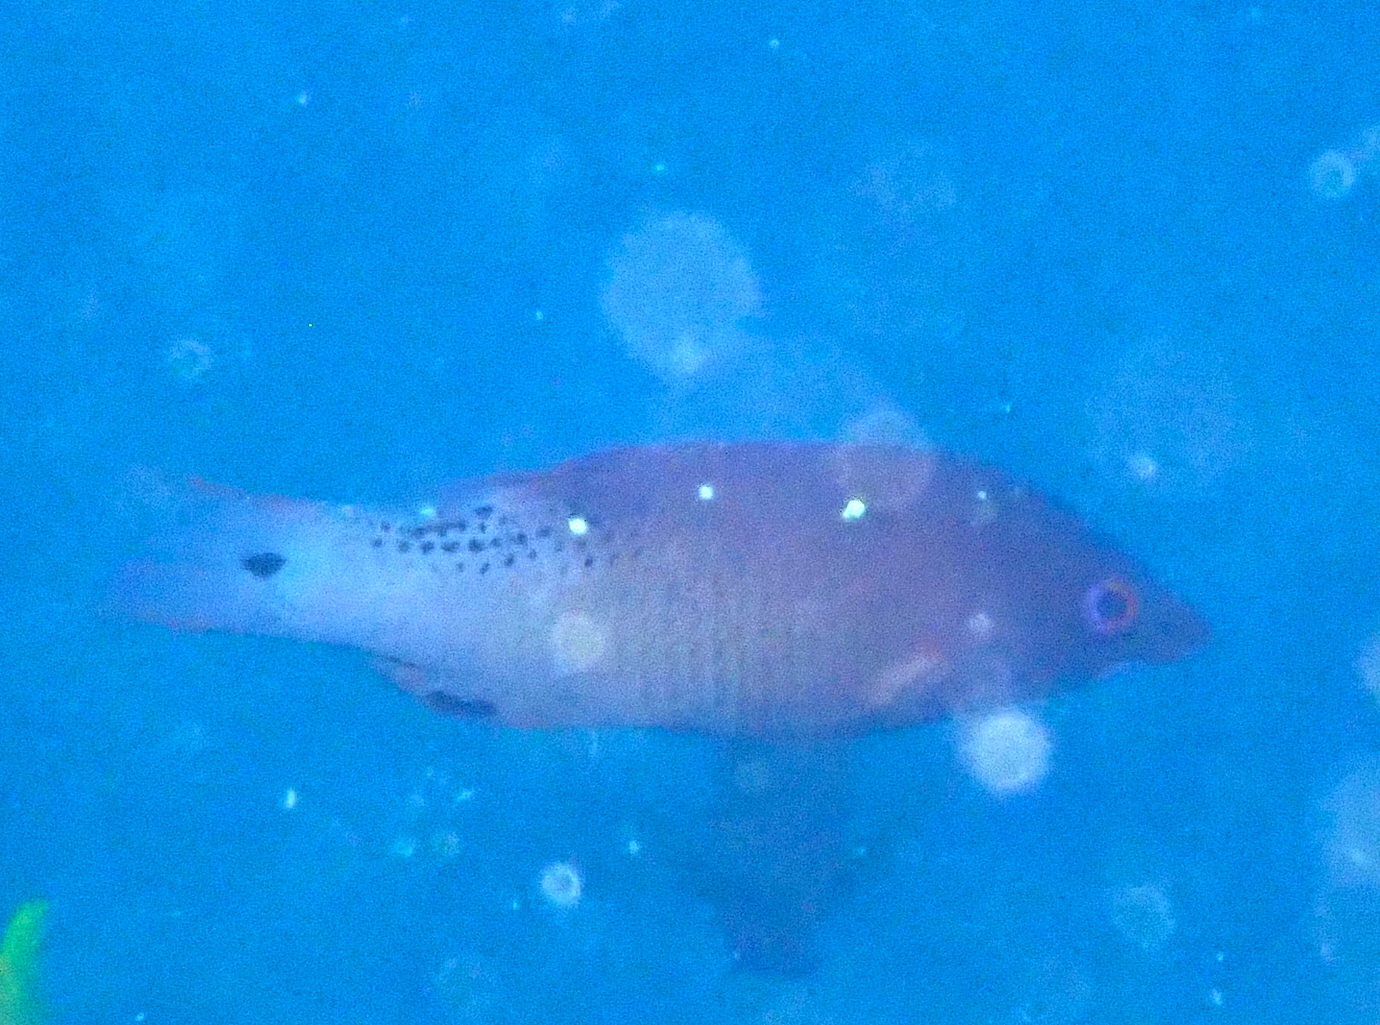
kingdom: Animalia
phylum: Chordata
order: Perciformes
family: Labridae
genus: Bodianus
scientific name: Bodianus dictynna
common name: Diana's hogfish
